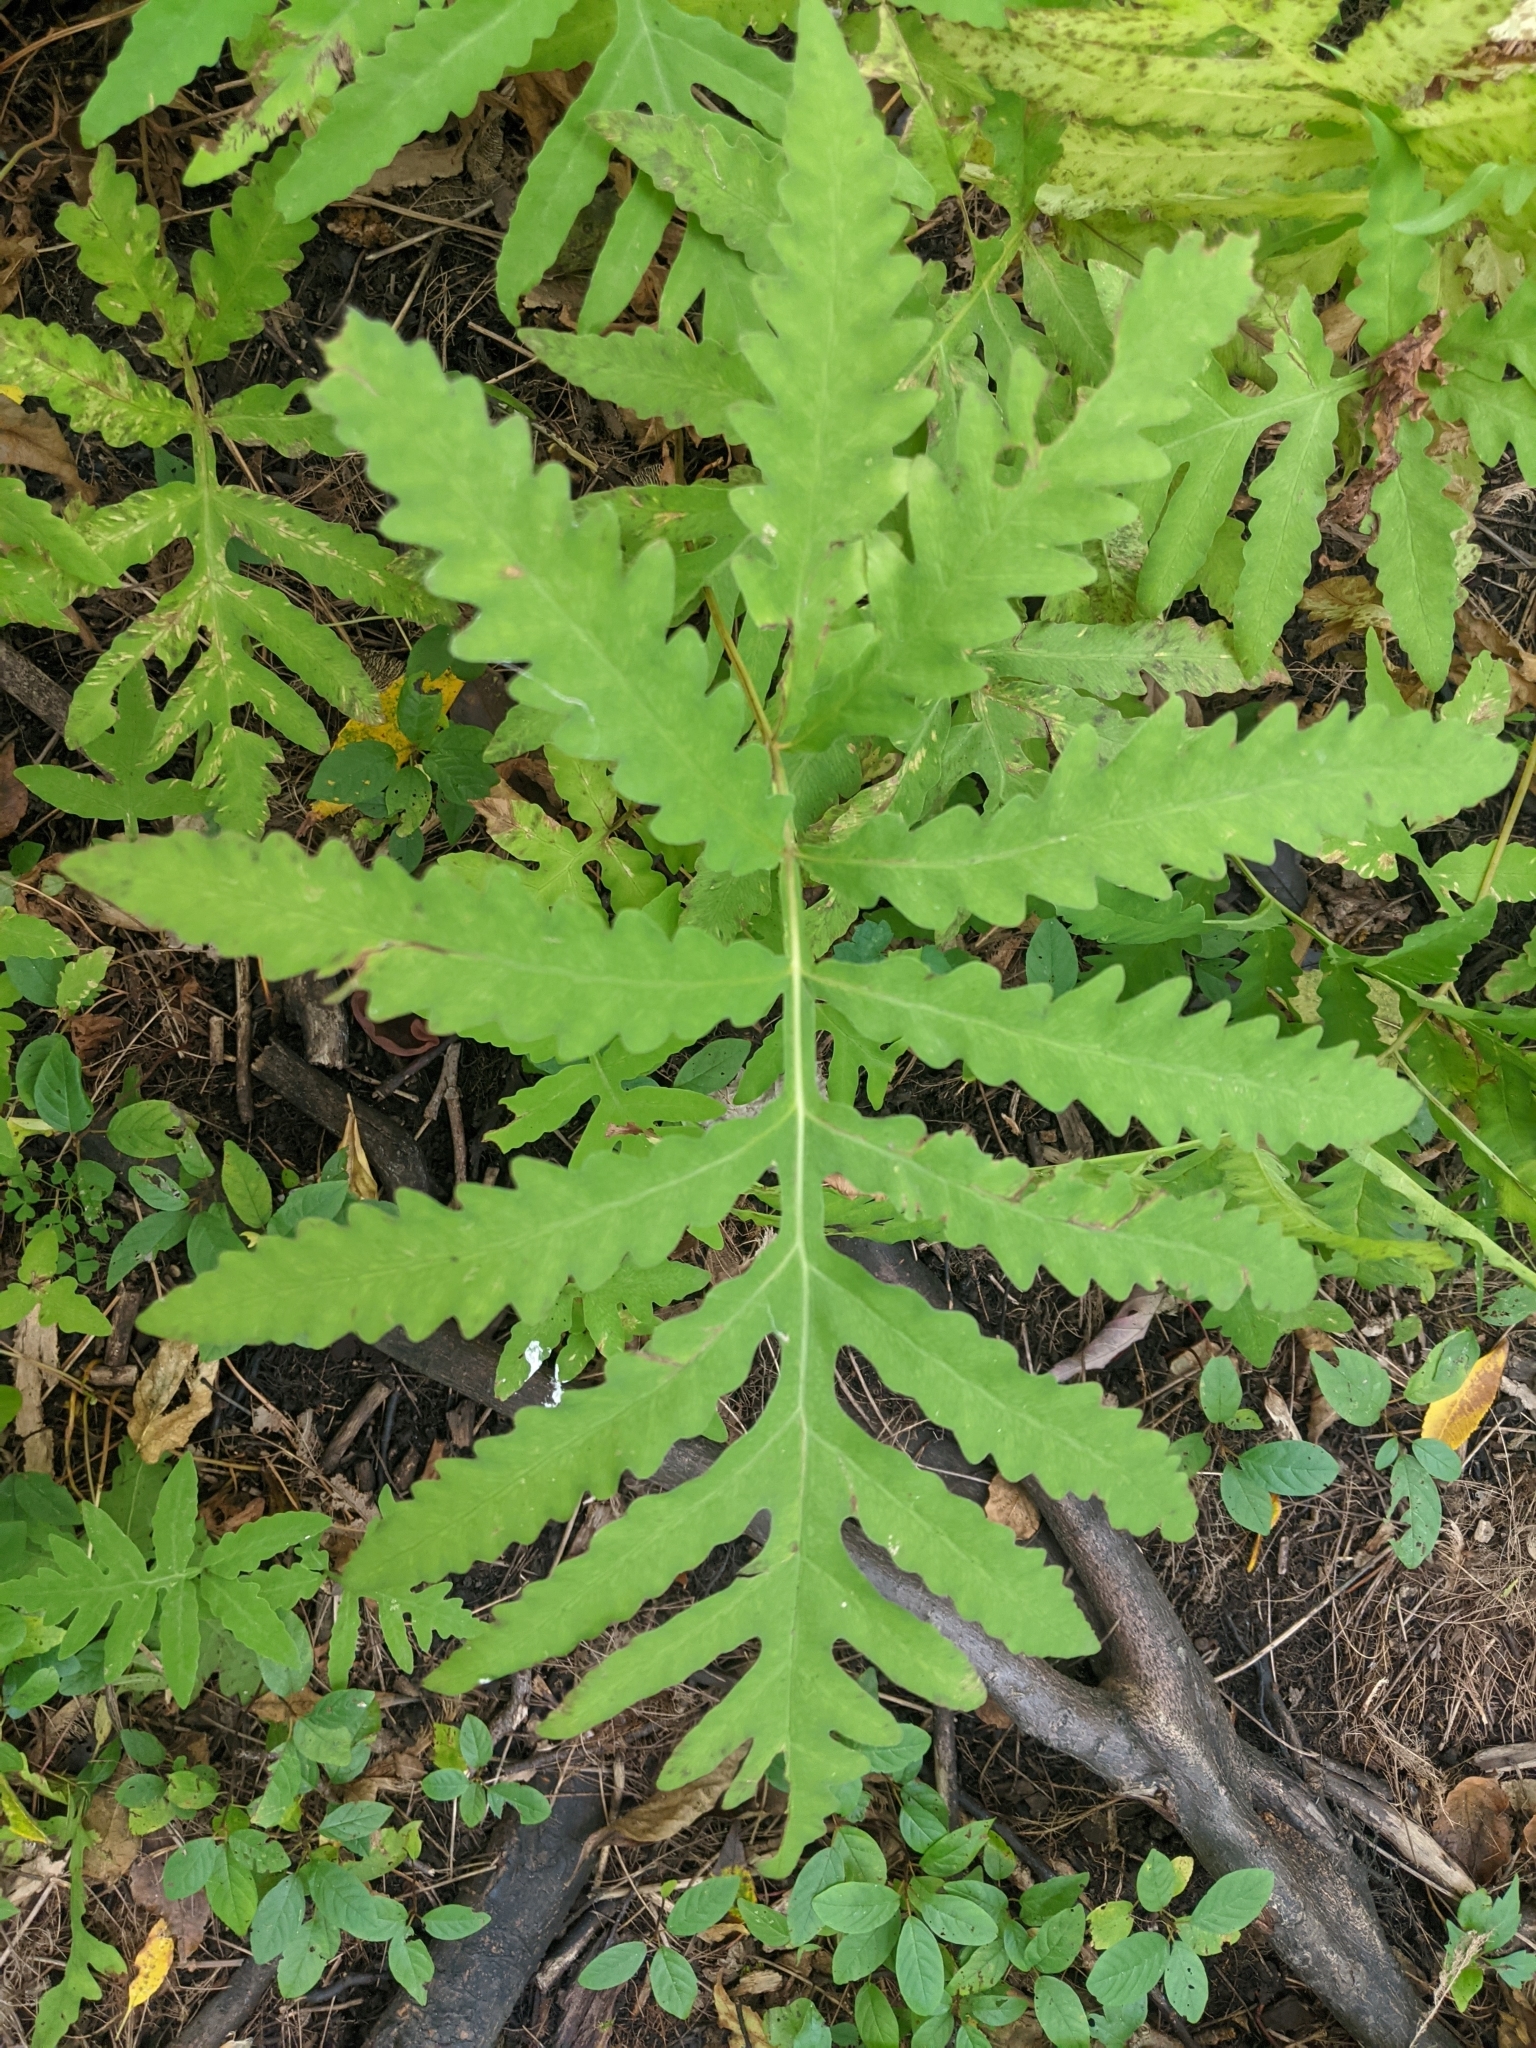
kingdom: Plantae
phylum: Tracheophyta
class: Polypodiopsida
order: Polypodiales
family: Onocleaceae
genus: Onoclea
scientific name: Onoclea sensibilis
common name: Sensitive fern
